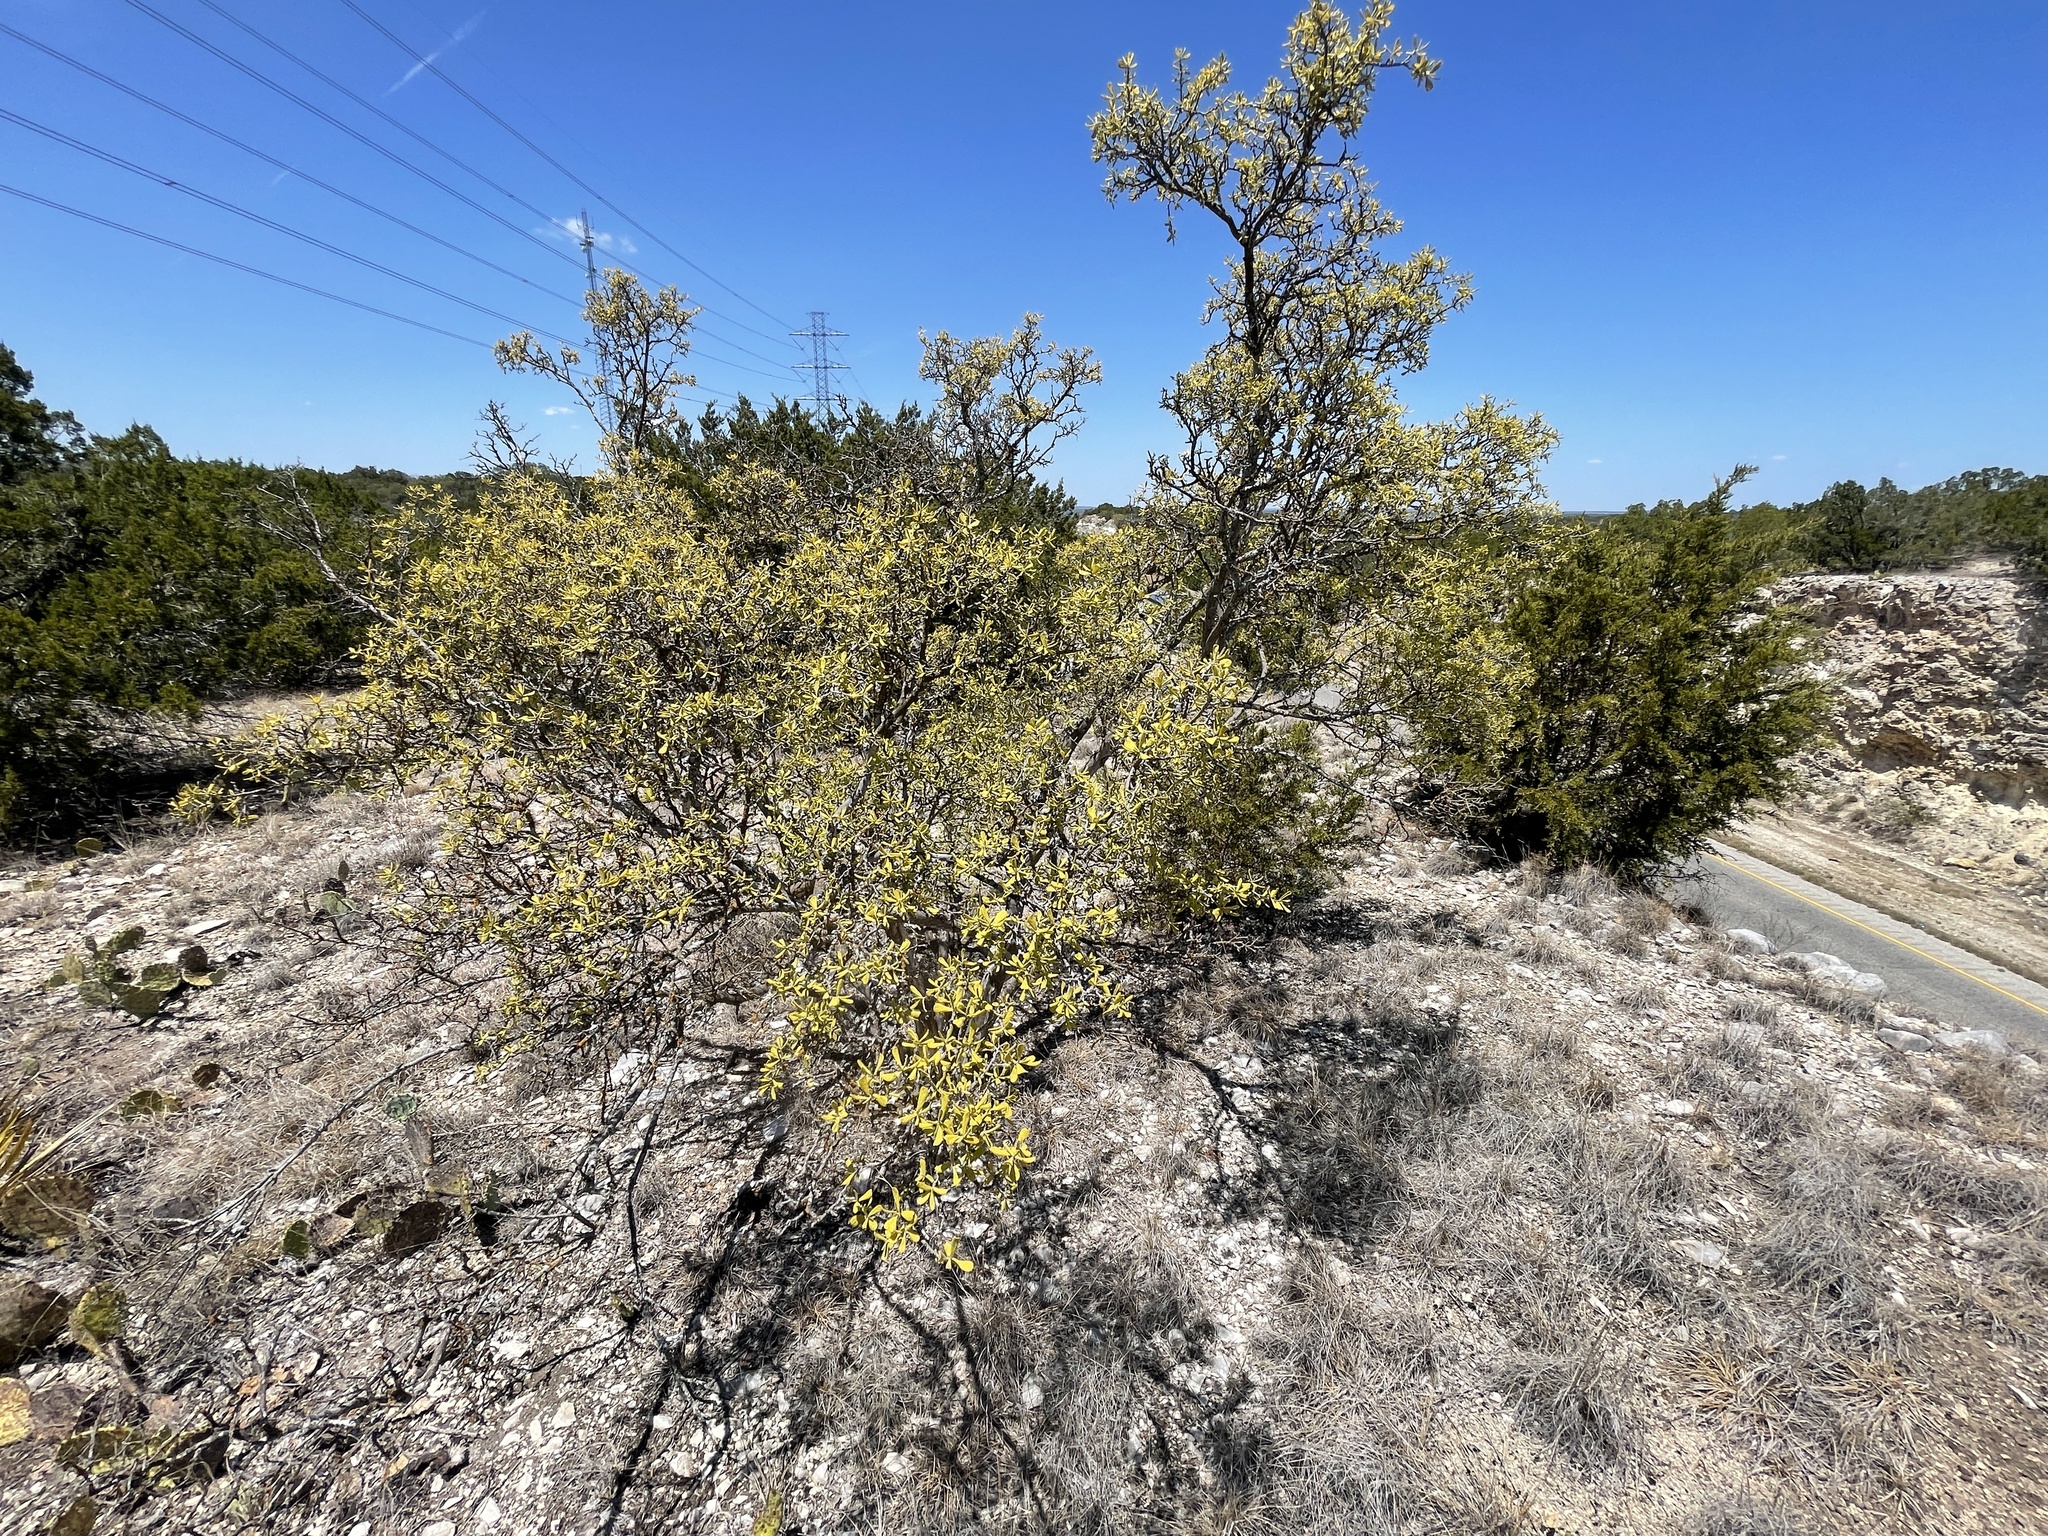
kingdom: Plantae
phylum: Tracheophyta
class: Magnoliopsida
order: Ericales
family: Ebenaceae
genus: Diospyros
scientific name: Diospyros texana
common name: Texas persimmon
